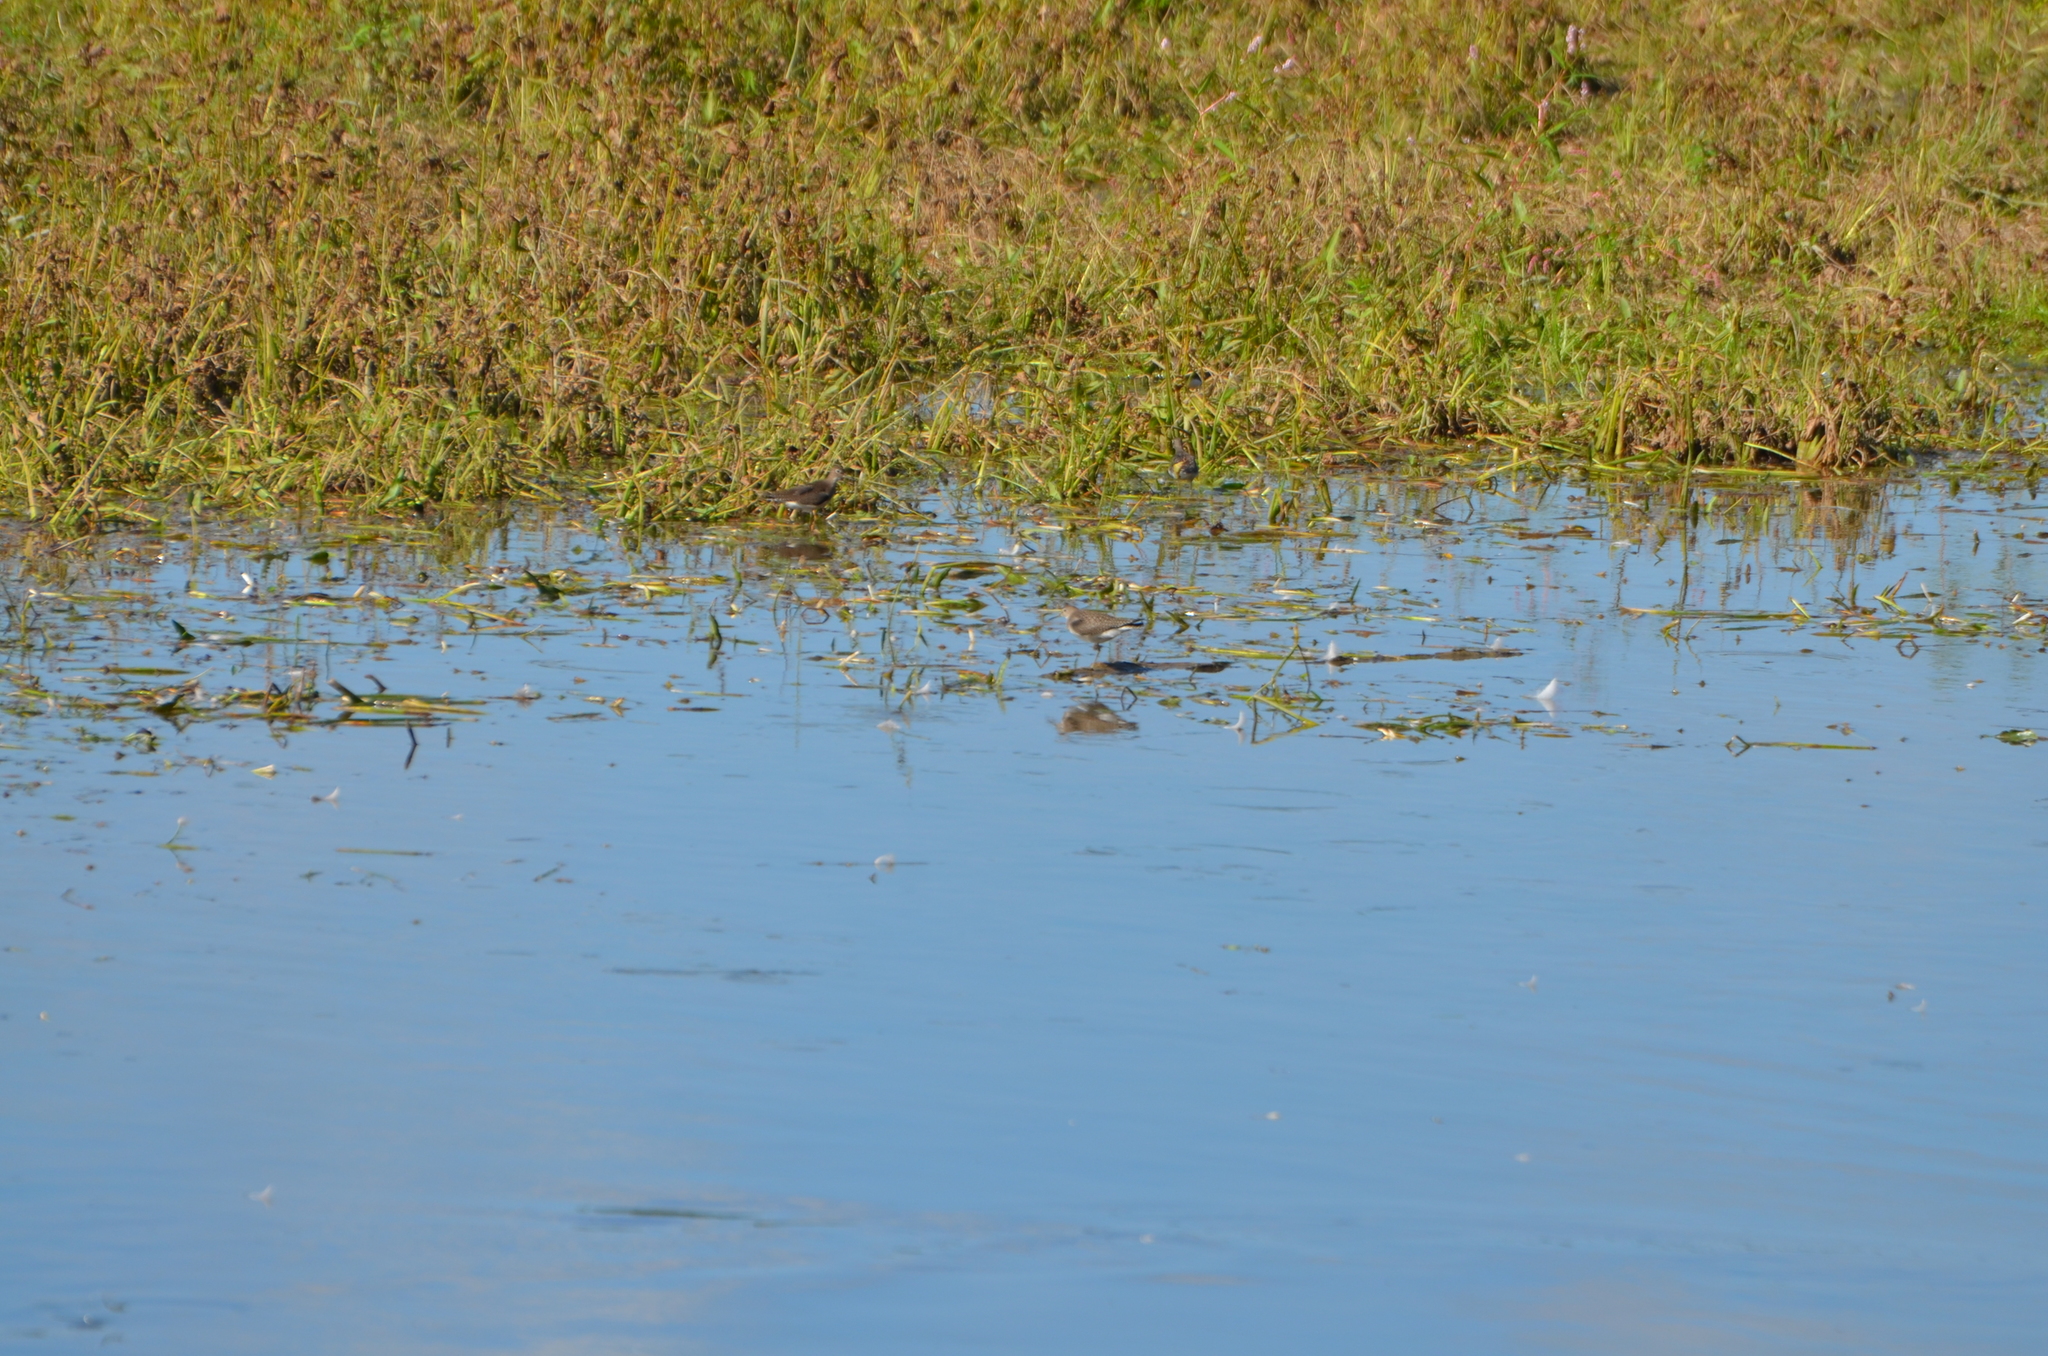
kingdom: Animalia
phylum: Chordata
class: Aves
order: Charadriiformes
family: Scolopacidae
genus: Tringa
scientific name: Tringa solitaria
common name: Solitary sandpiper
